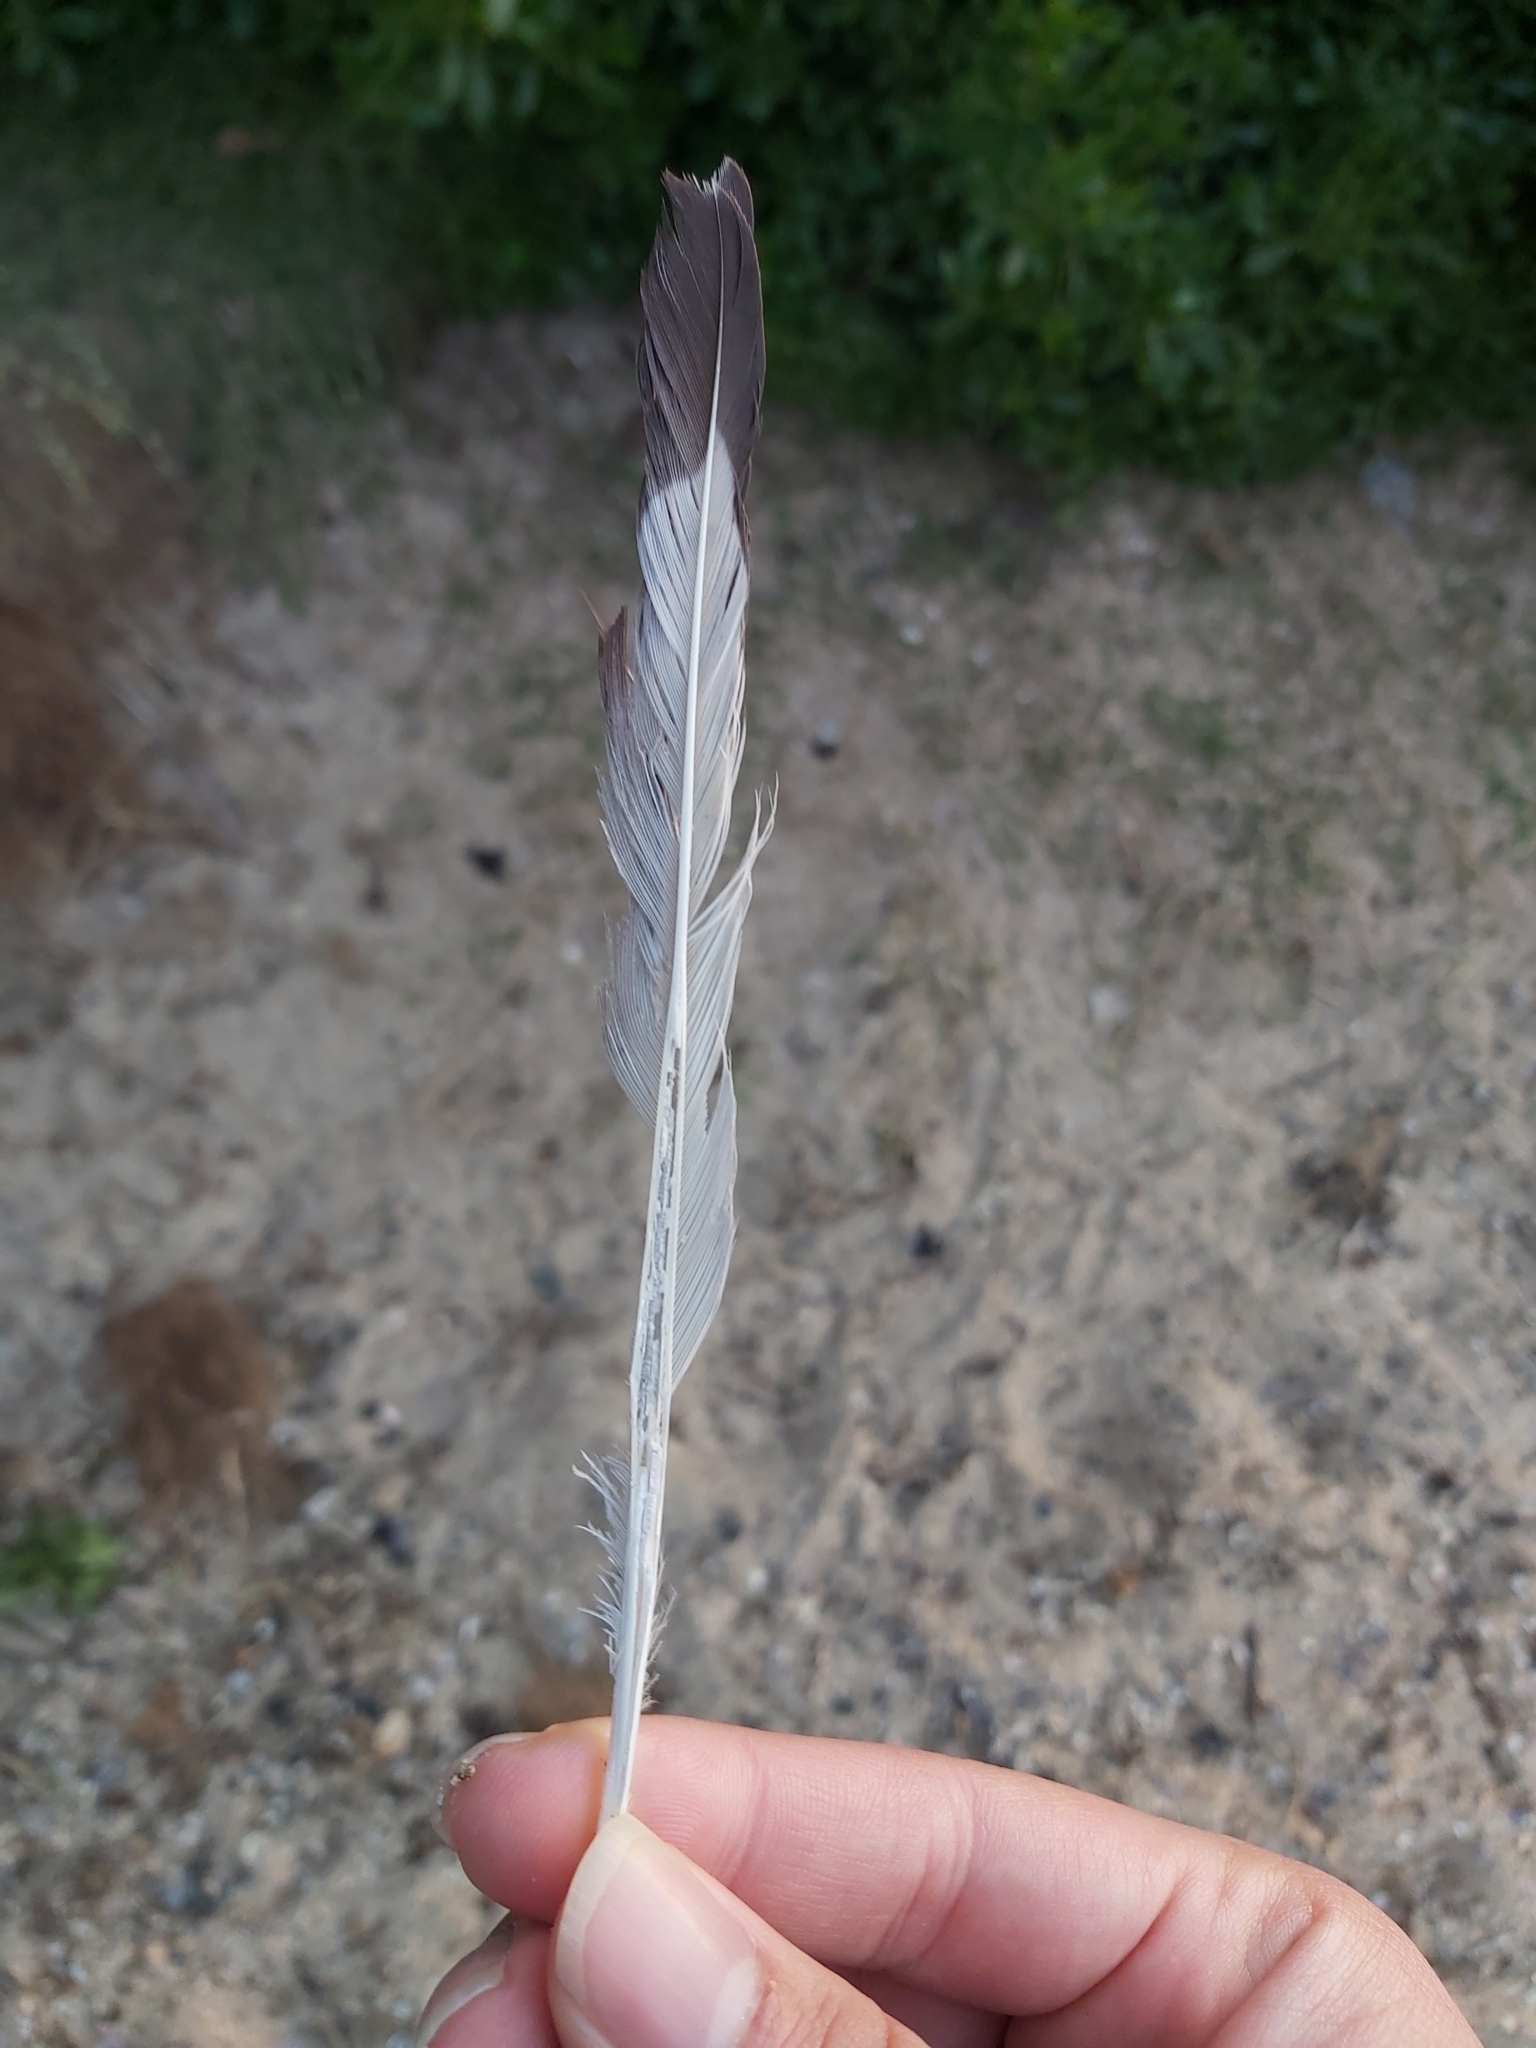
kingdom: Animalia
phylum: Chordata
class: Aves
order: Charadriiformes
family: Laridae
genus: Chroicocephalus
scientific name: Chroicocephalus novaehollandiae
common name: Silver gull
